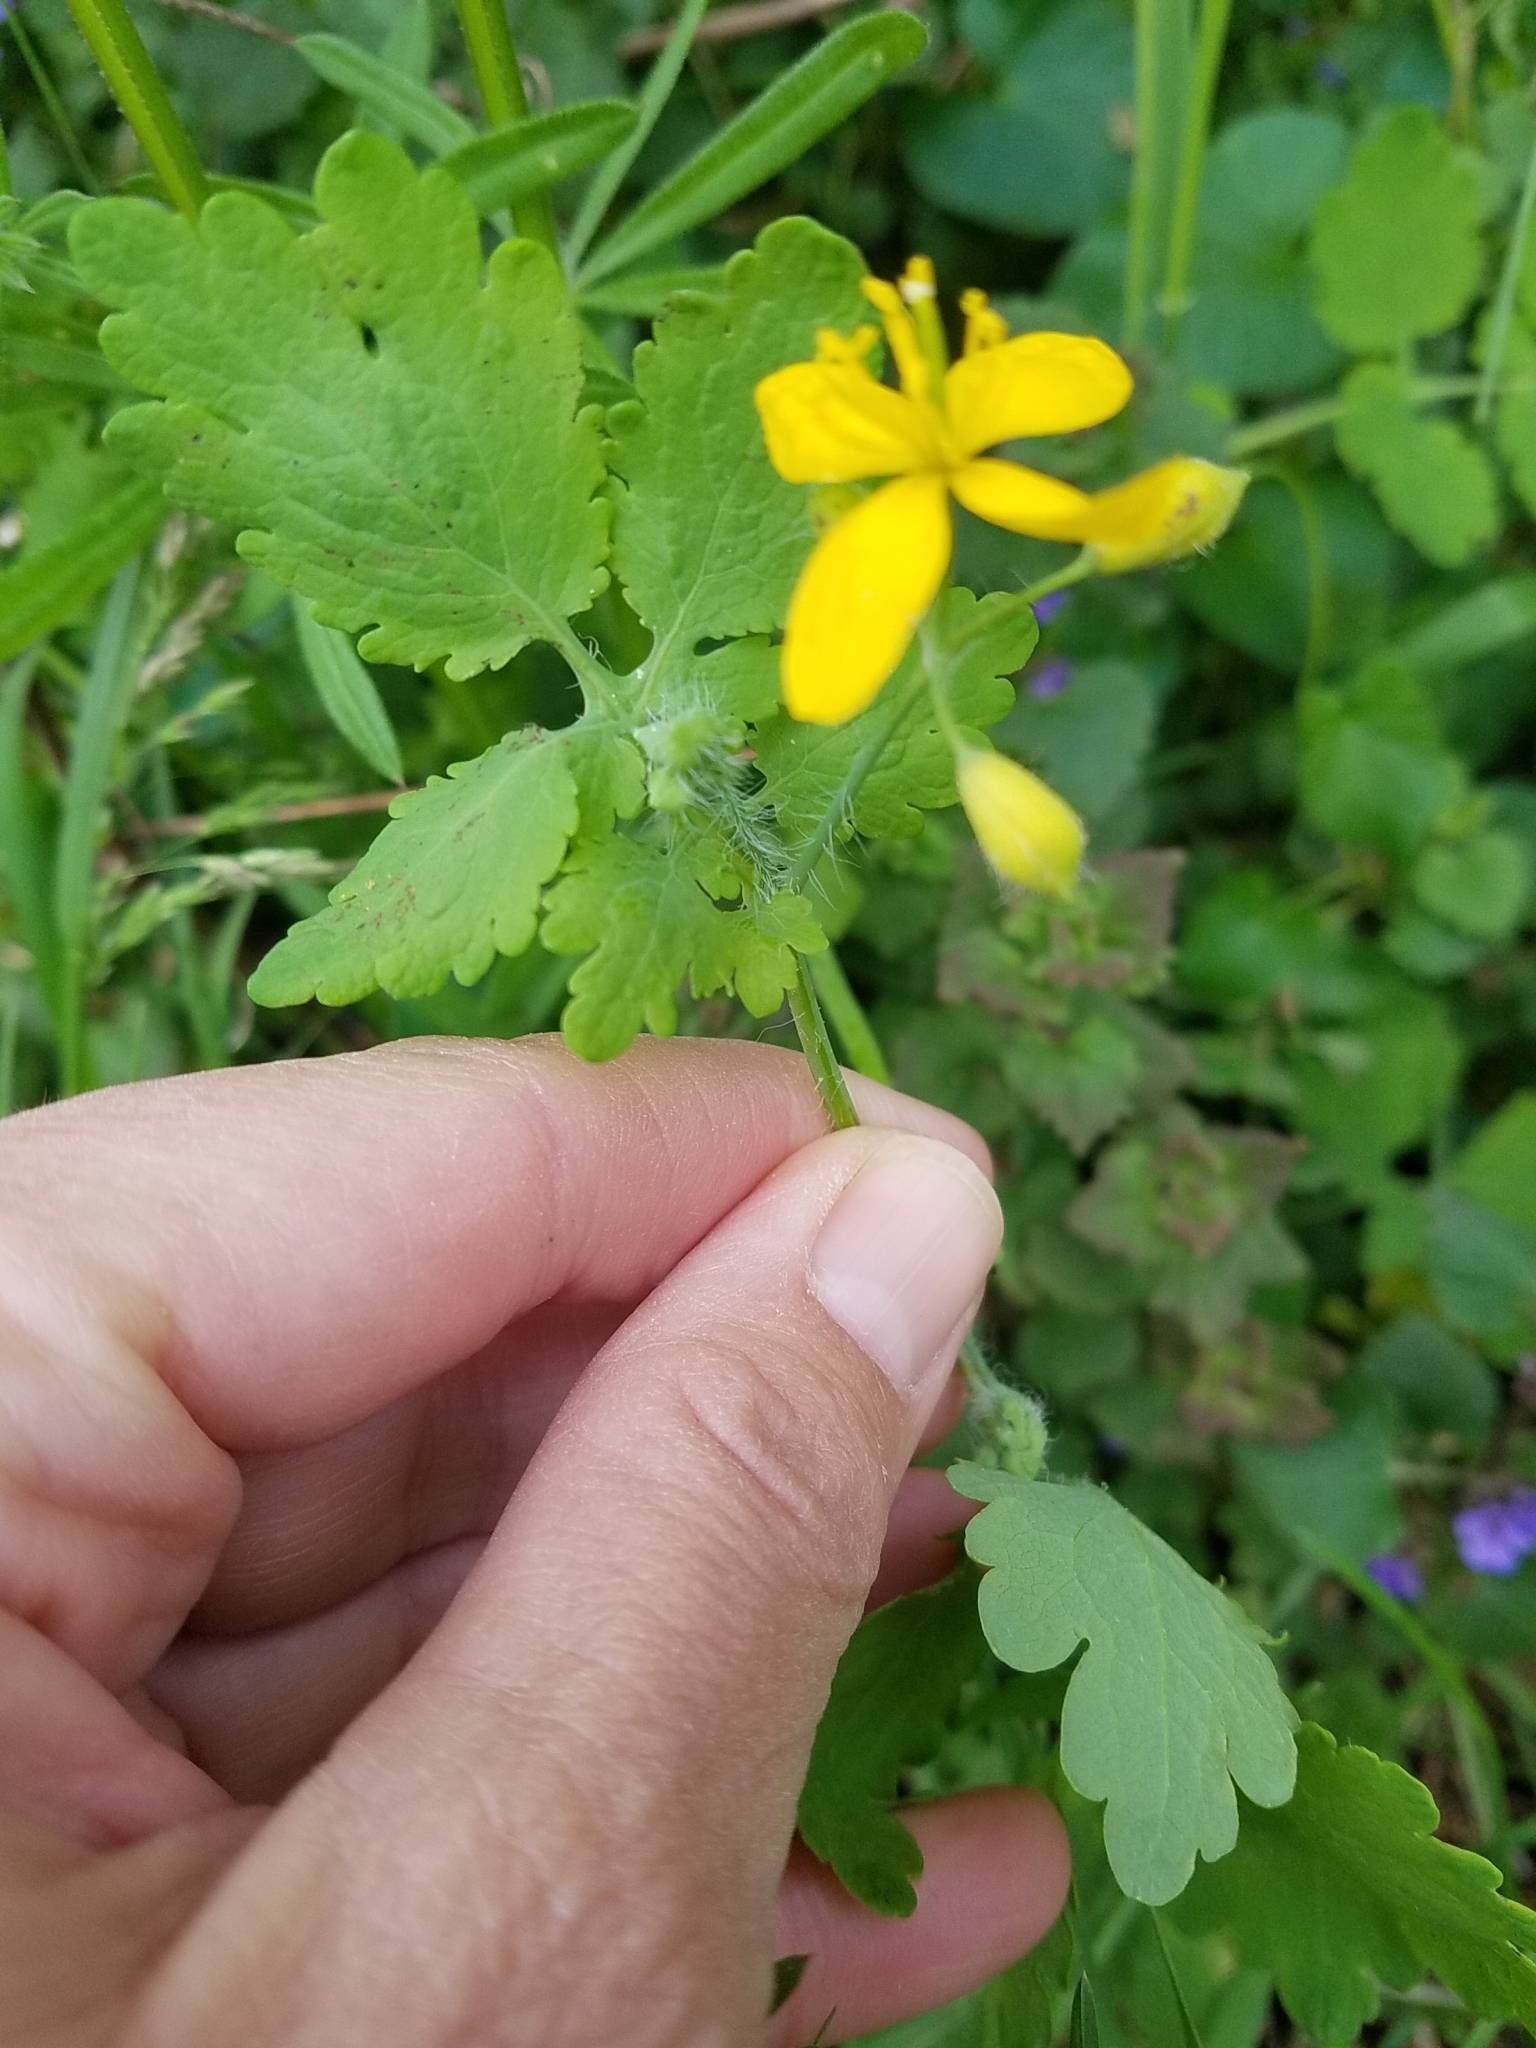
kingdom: Plantae
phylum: Tracheophyta
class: Magnoliopsida
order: Ranunculales
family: Papaveraceae
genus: Chelidonium
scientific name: Chelidonium majus
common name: Greater celandine
